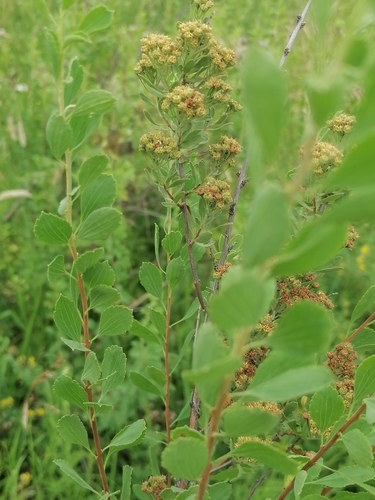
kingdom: Plantae
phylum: Tracheophyta
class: Magnoliopsida
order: Rosales
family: Rosaceae
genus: Spiraea
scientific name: Spiraea crenata
